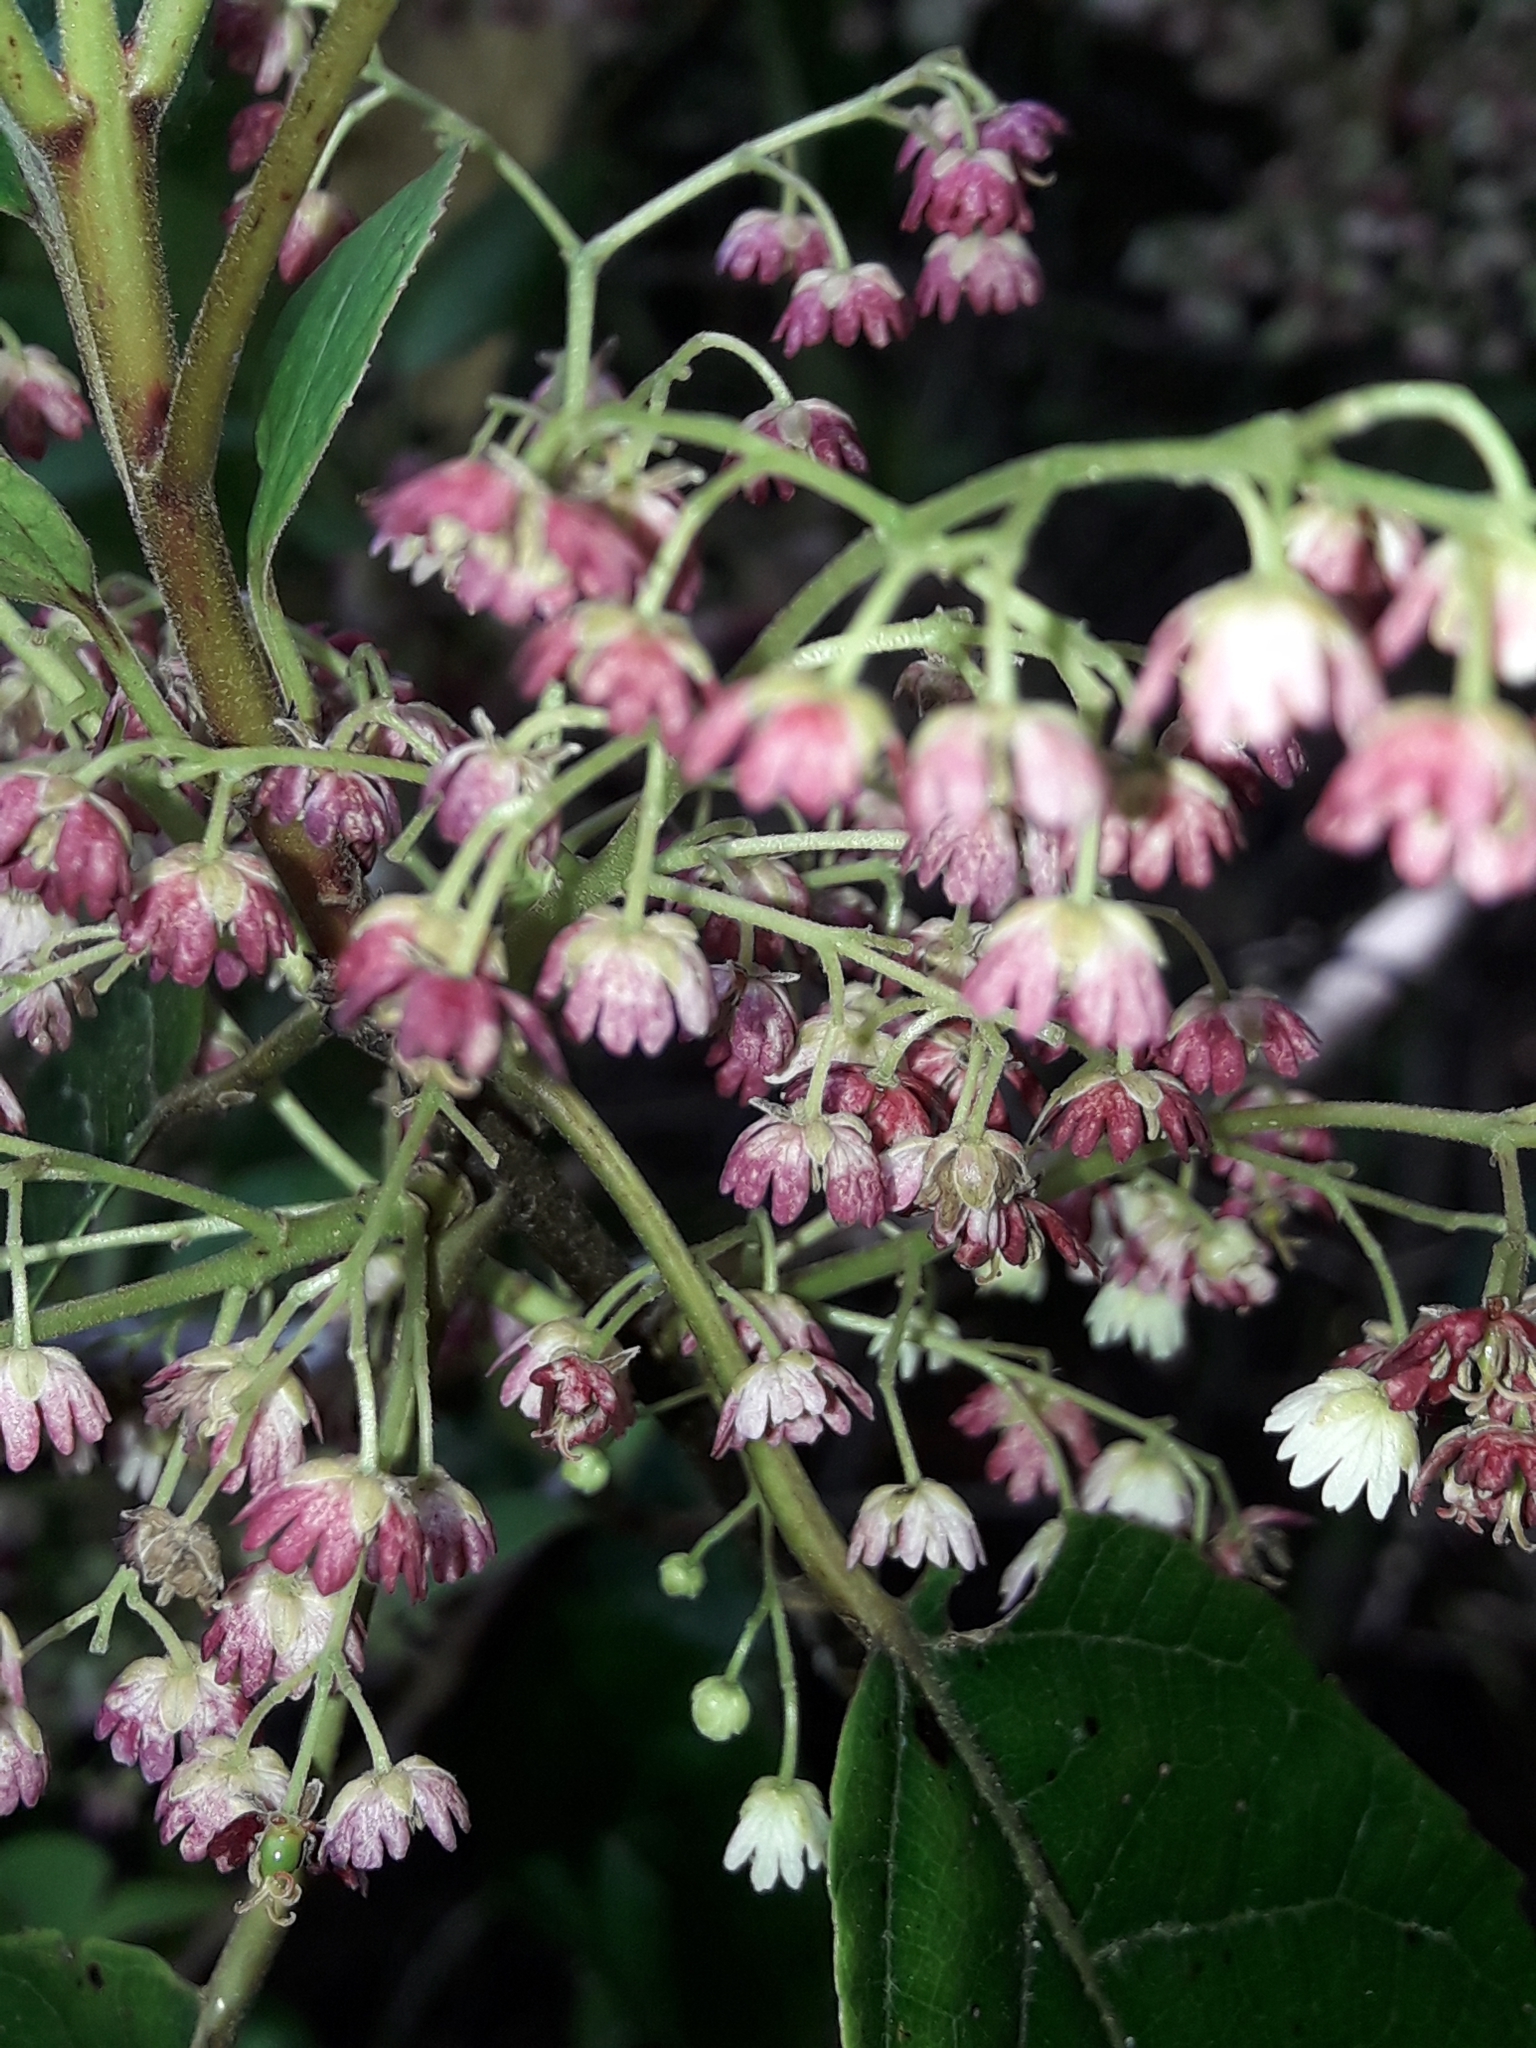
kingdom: Plantae
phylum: Tracheophyta
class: Magnoliopsida
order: Oxalidales
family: Elaeocarpaceae
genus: Aristotelia
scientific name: Aristotelia serrata
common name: New zealand wineberry
